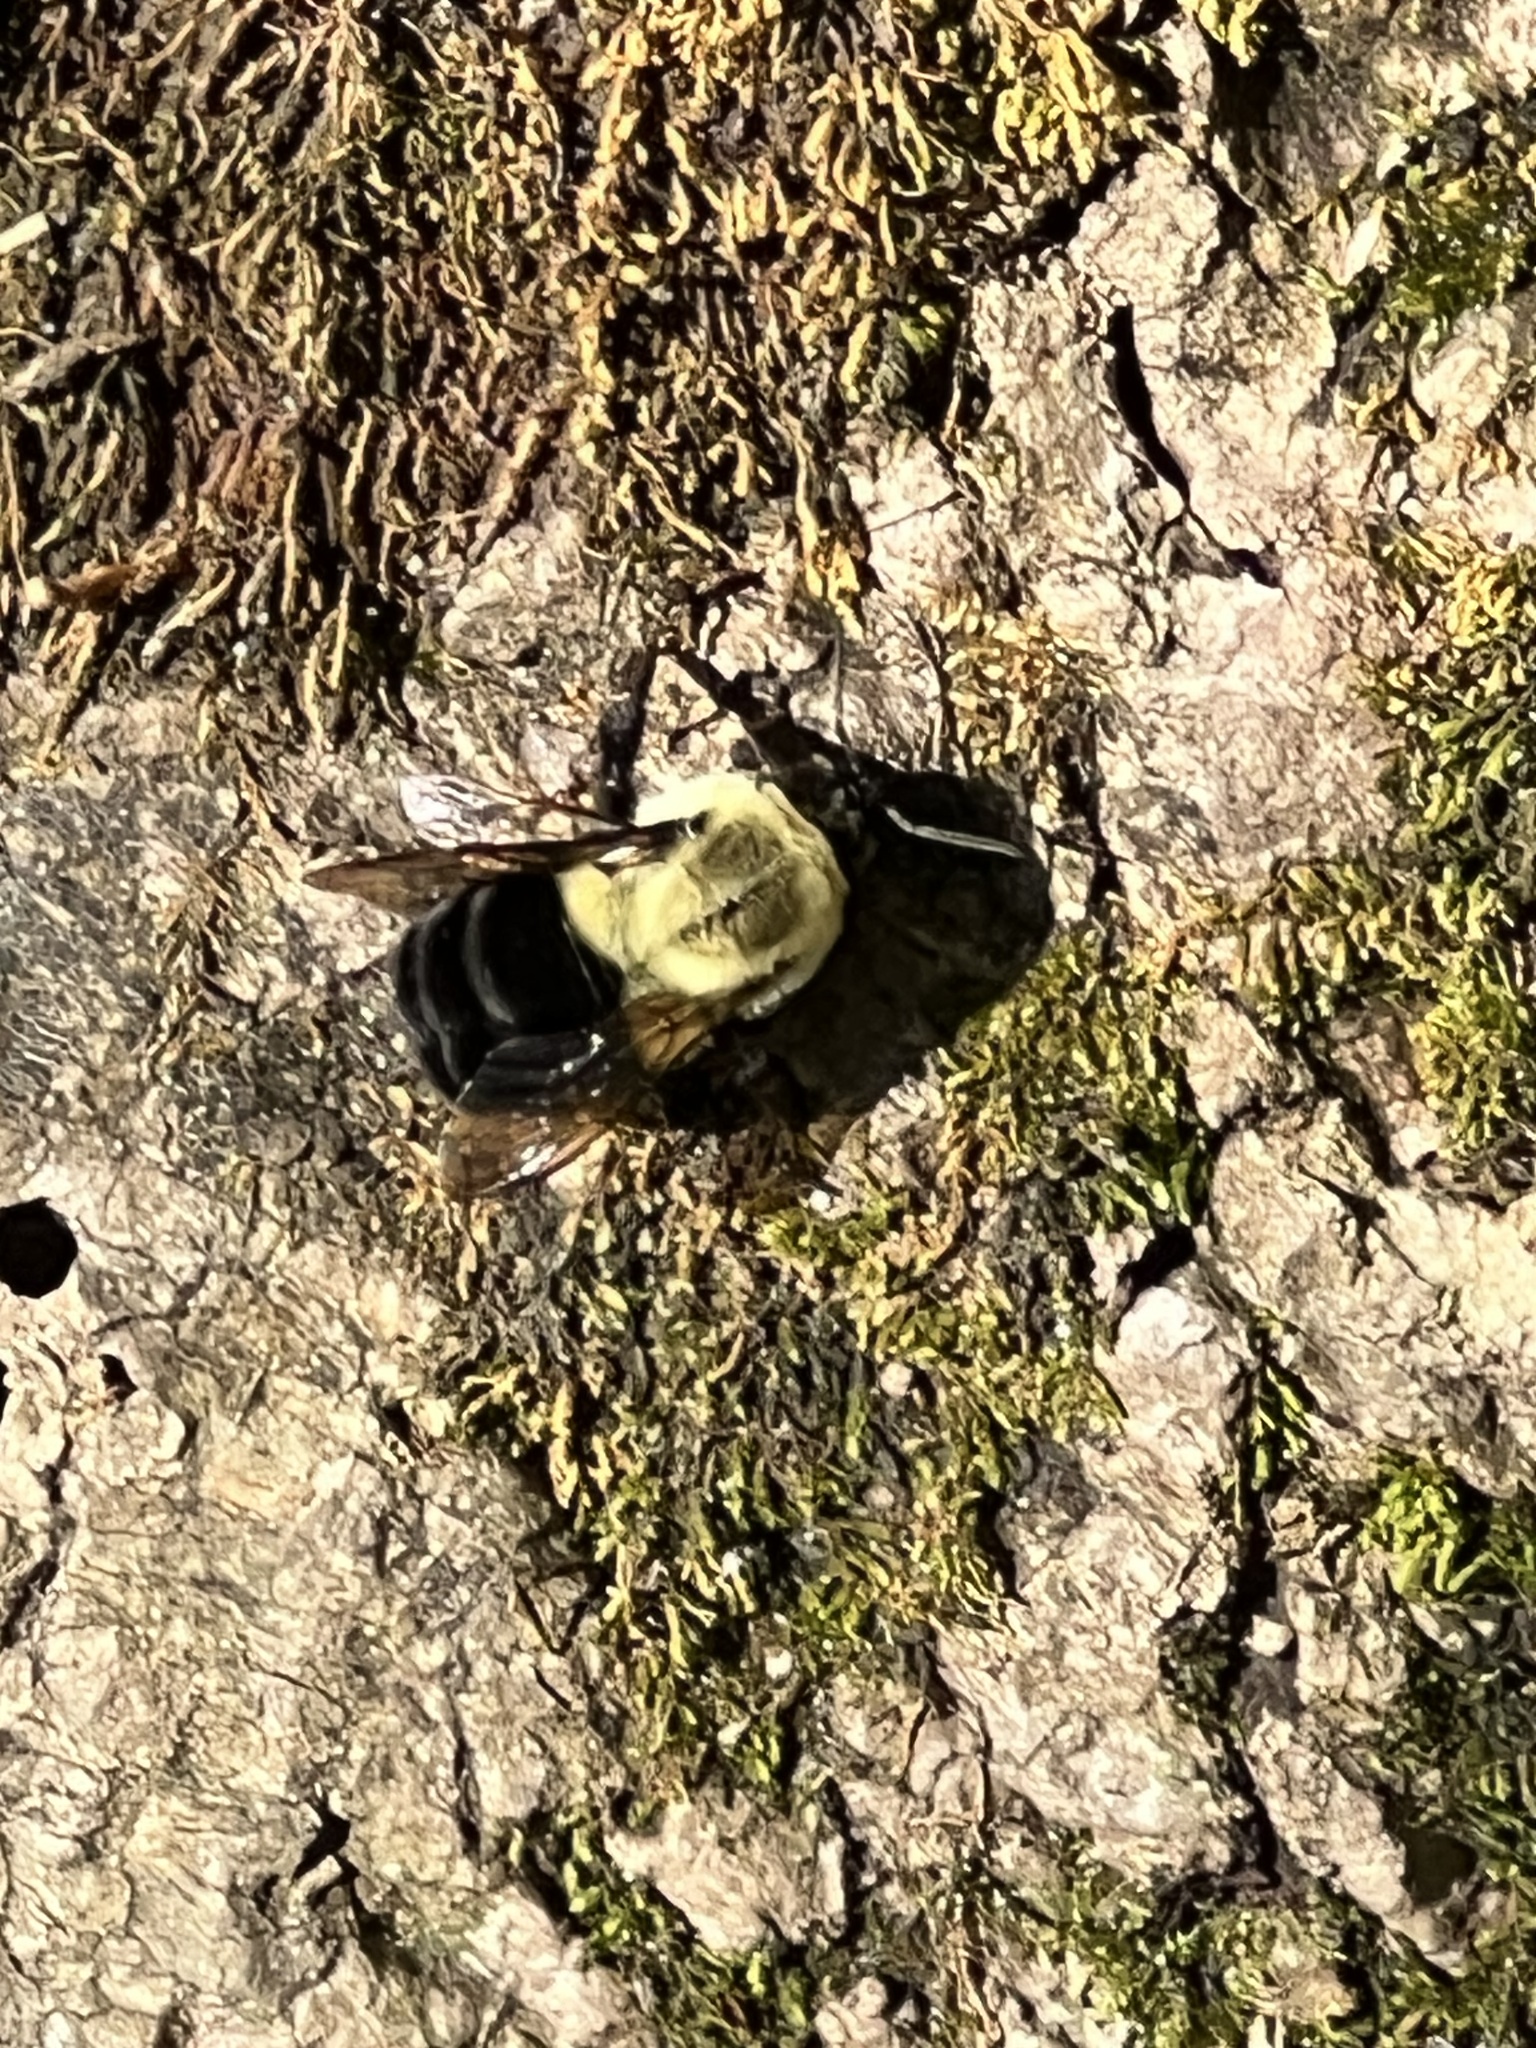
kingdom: Animalia
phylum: Arthropoda
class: Insecta
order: Hymenoptera
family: Apidae
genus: Bombus
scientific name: Bombus impatiens
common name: Common eastern bumble bee
